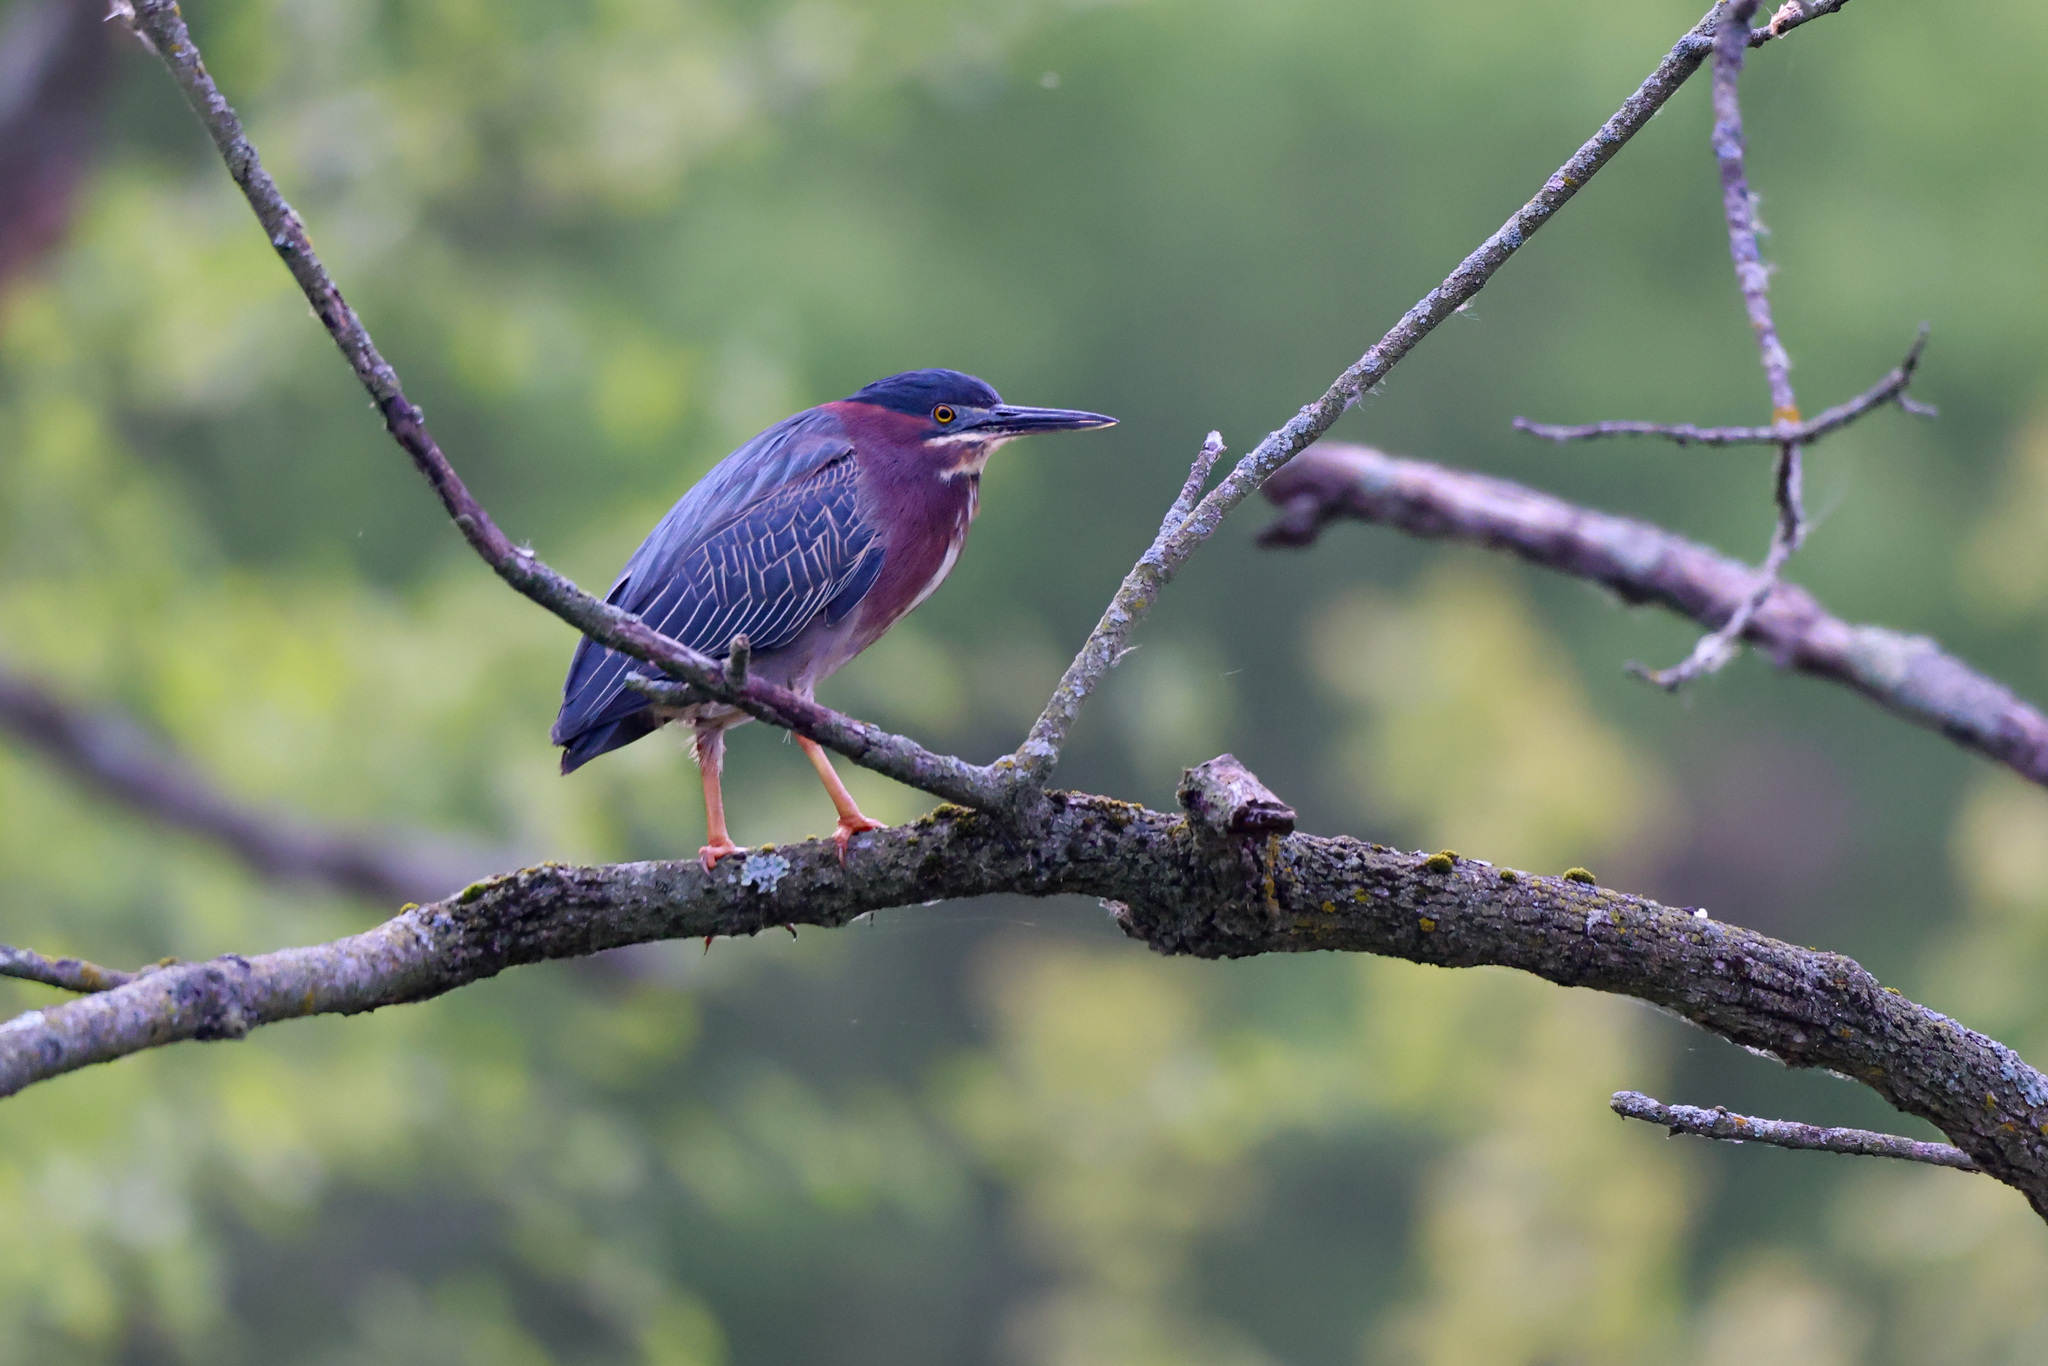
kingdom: Animalia
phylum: Chordata
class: Aves
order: Pelecaniformes
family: Ardeidae
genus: Butorides
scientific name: Butorides virescens
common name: Green heron
